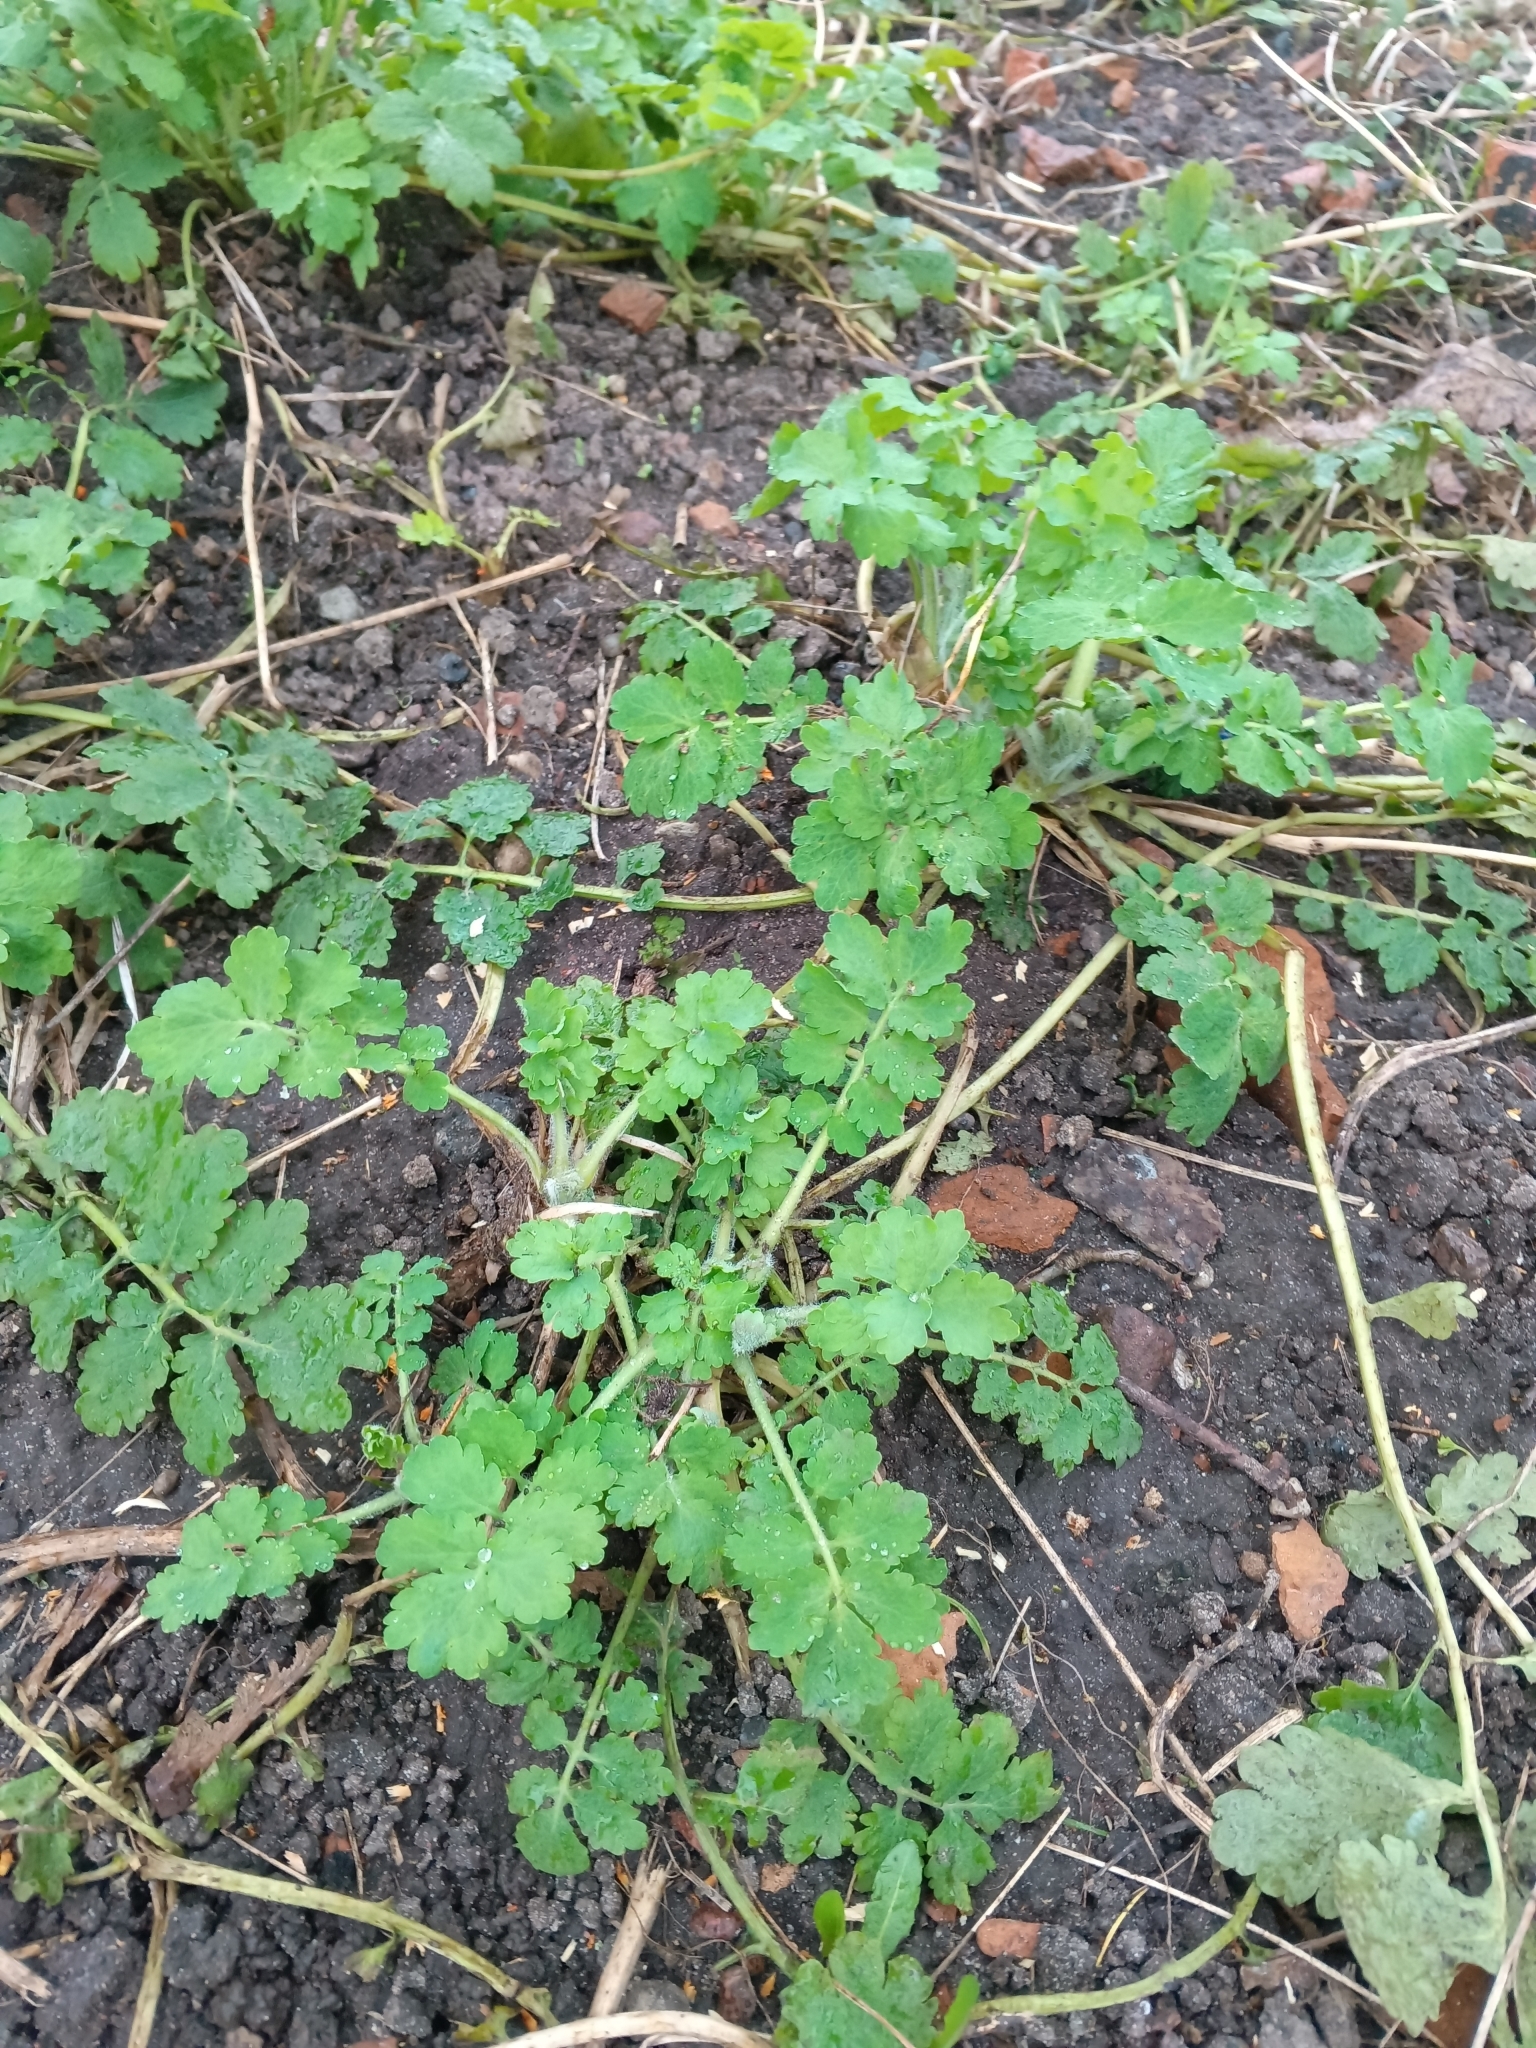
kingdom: Plantae
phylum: Tracheophyta
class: Magnoliopsida
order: Ranunculales
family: Papaveraceae
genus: Chelidonium
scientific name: Chelidonium majus
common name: Greater celandine
